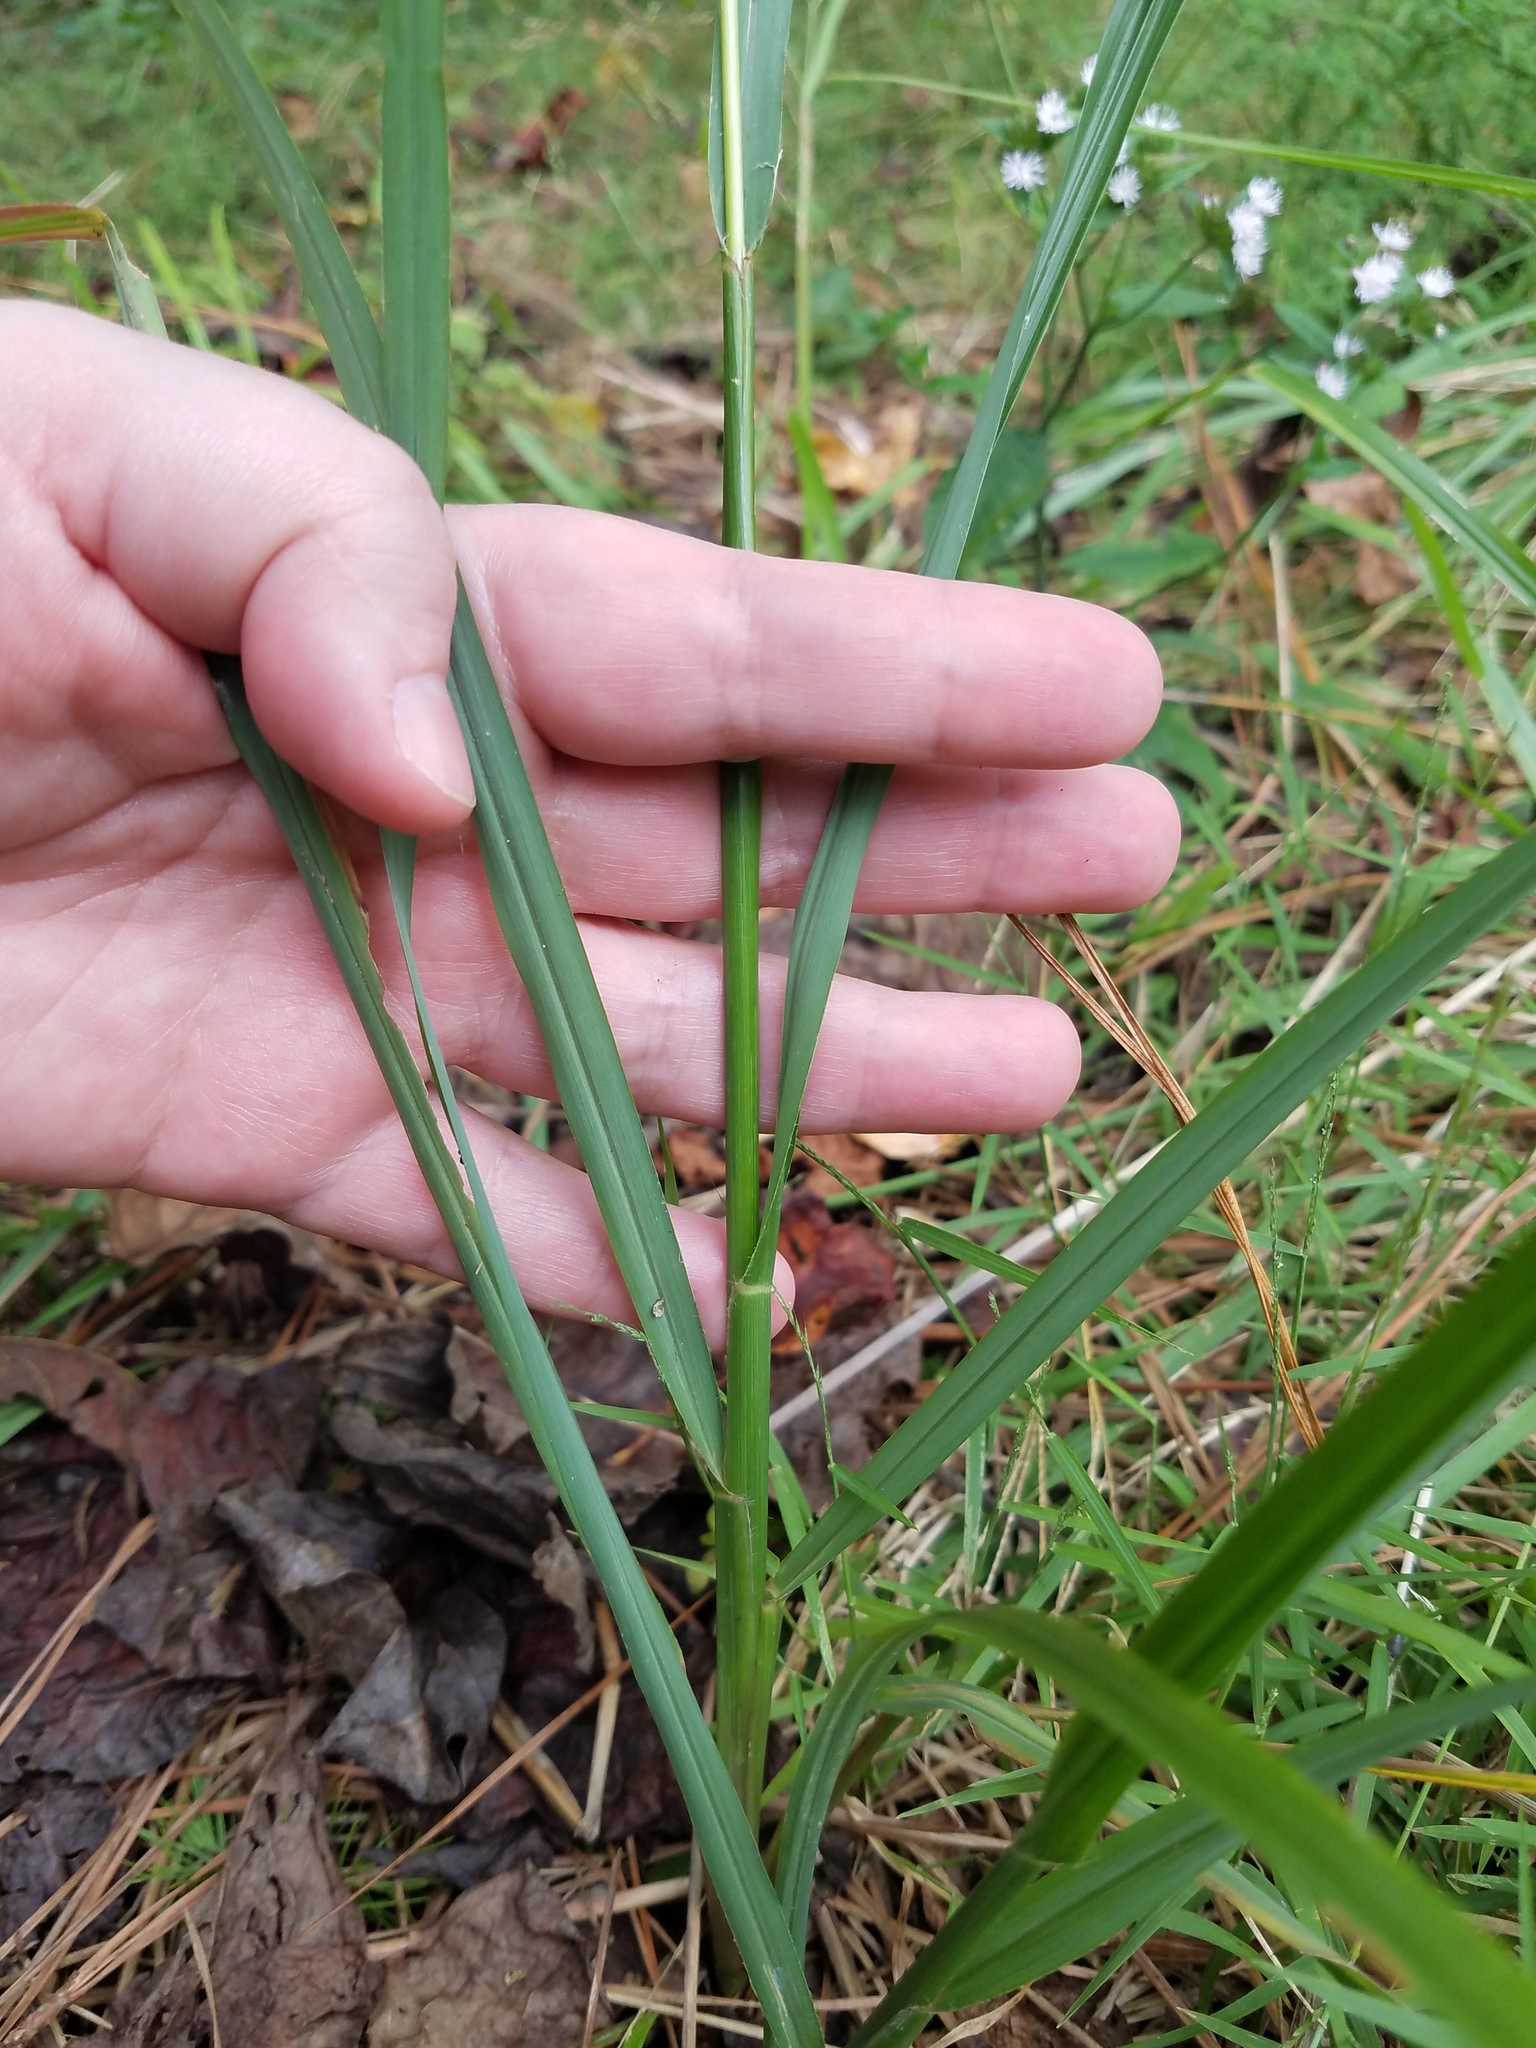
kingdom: Plantae
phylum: Tracheophyta
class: Liliopsida
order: Poales
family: Poaceae
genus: Cenchrus
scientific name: Cenchrus alopecuroides
